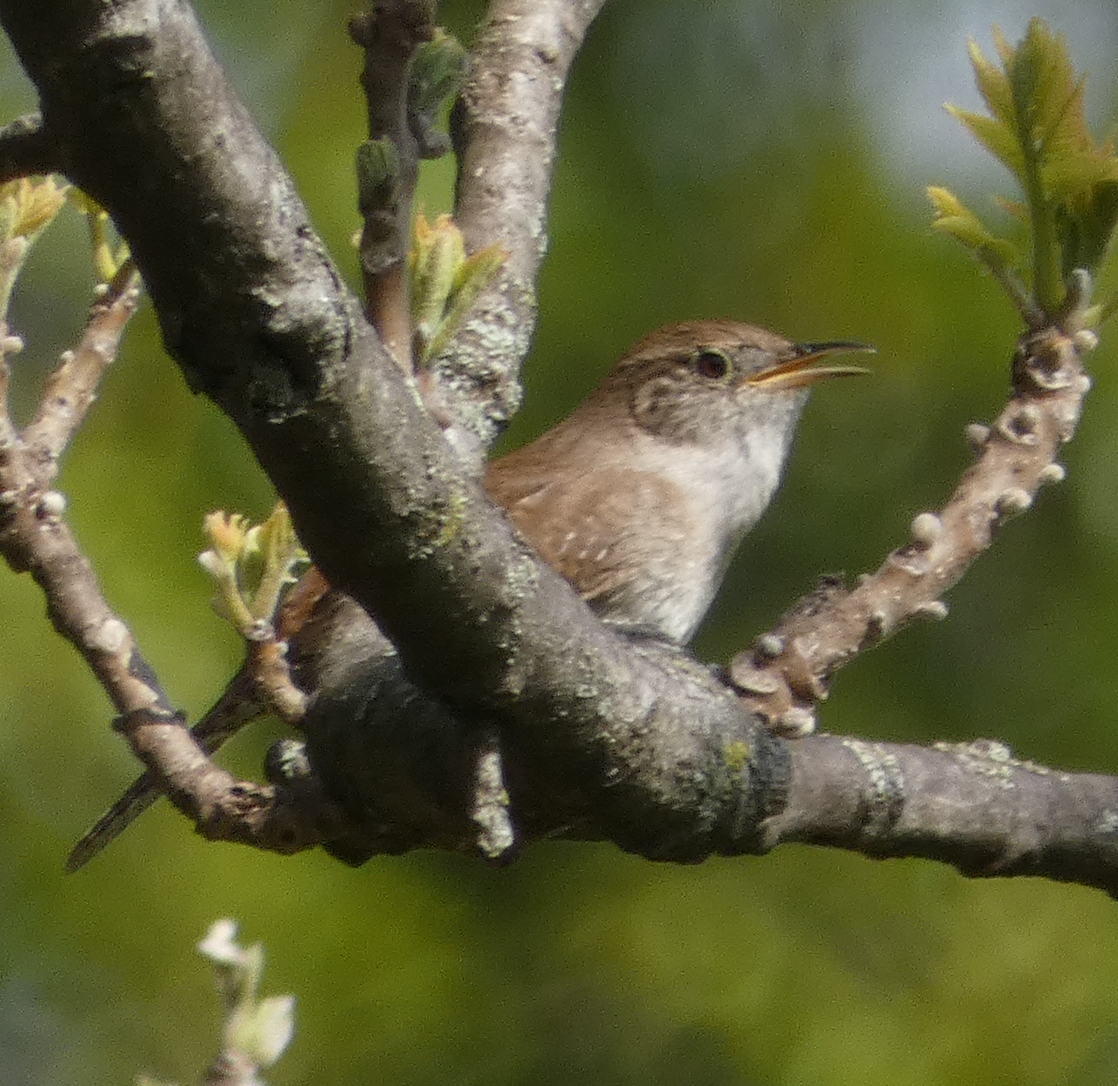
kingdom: Animalia
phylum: Chordata
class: Aves
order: Passeriformes
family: Troglodytidae
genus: Troglodytes
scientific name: Troglodytes aedon
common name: House wren
